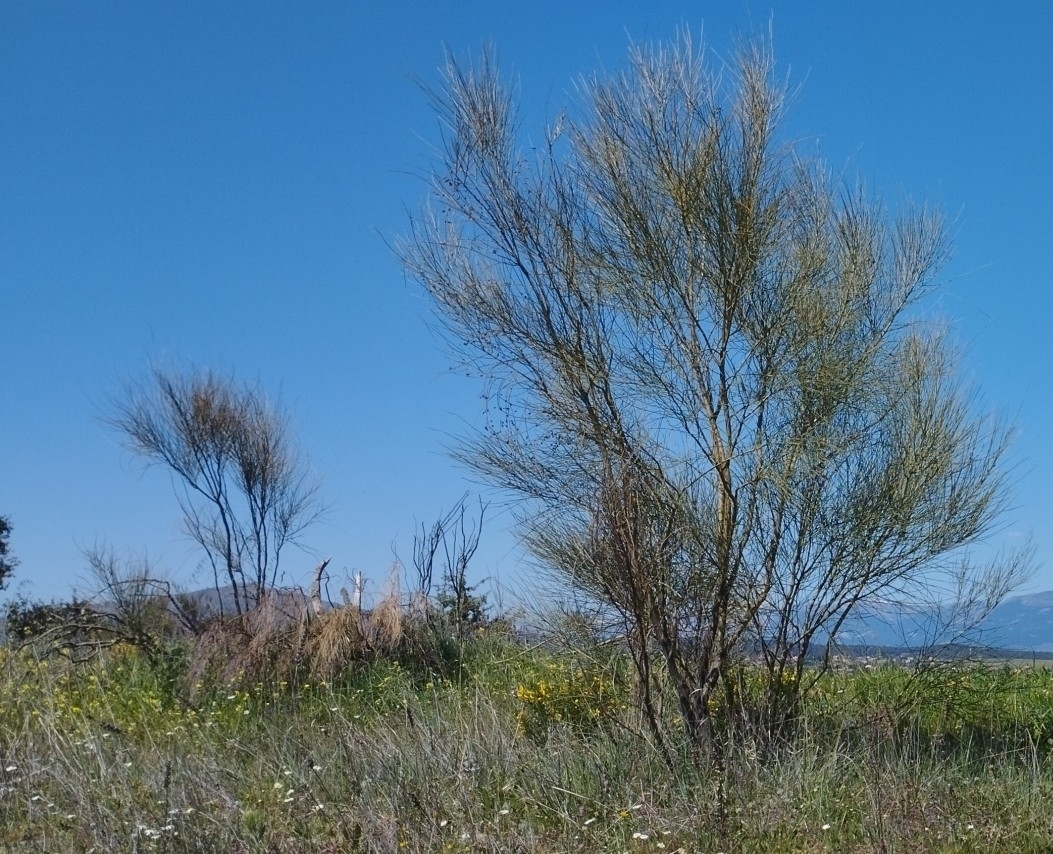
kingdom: Plantae
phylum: Tracheophyta
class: Magnoliopsida
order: Fabales
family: Fabaceae
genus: Retama
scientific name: Retama sphaerocarpa
